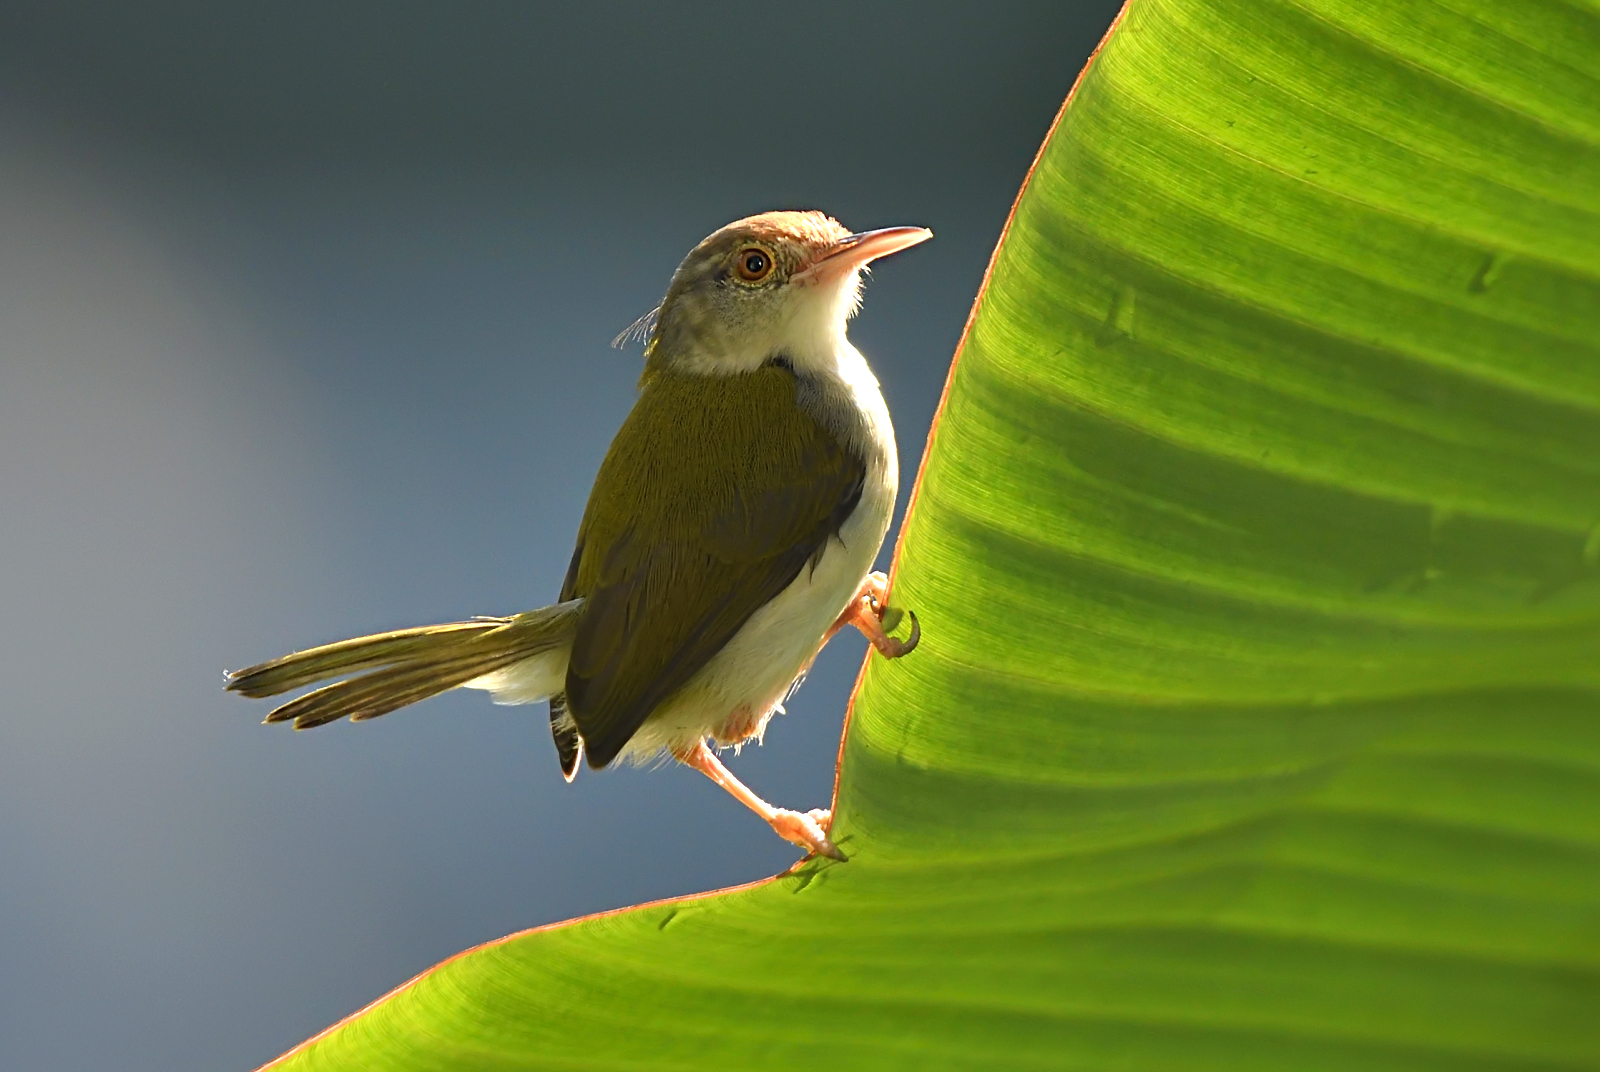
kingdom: Animalia
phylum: Chordata
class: Aves
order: Passeriformes
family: Cisticolidae
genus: Orthotomus
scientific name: Orthotomus sutorius
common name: Common tailorbird
